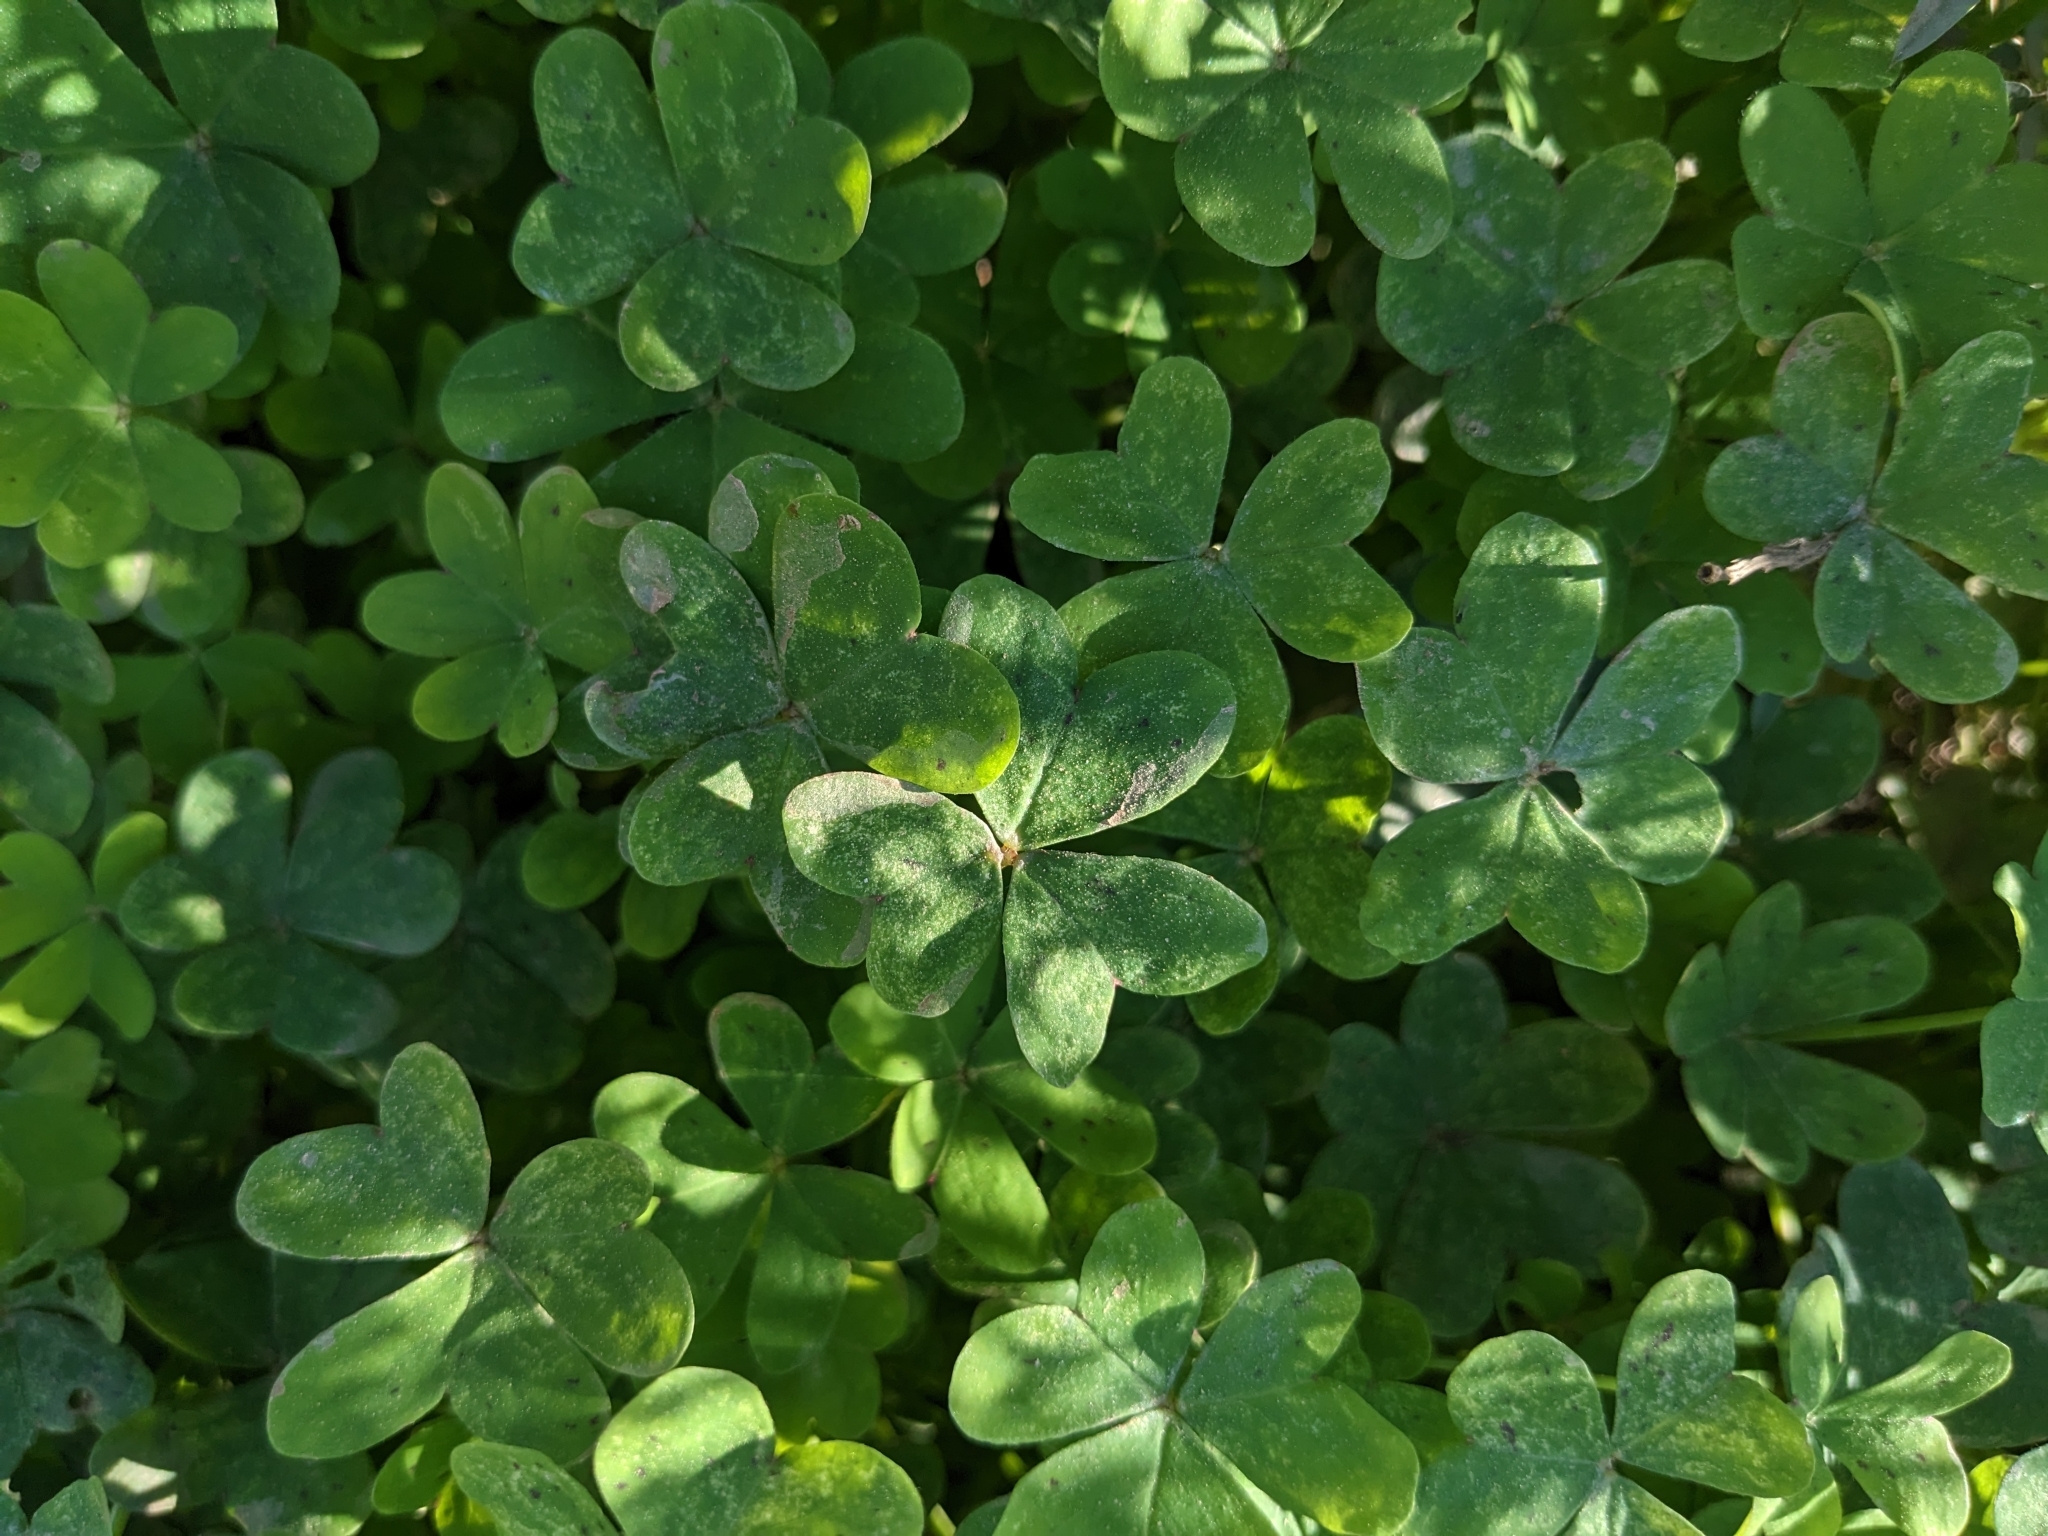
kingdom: Plantae
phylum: Tracheophyta
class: Magnoliopsida
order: Oxalidales
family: Oxalidaceae
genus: Oxalis
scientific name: Oxalis pes-caprae
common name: Bermuda-buttercup
